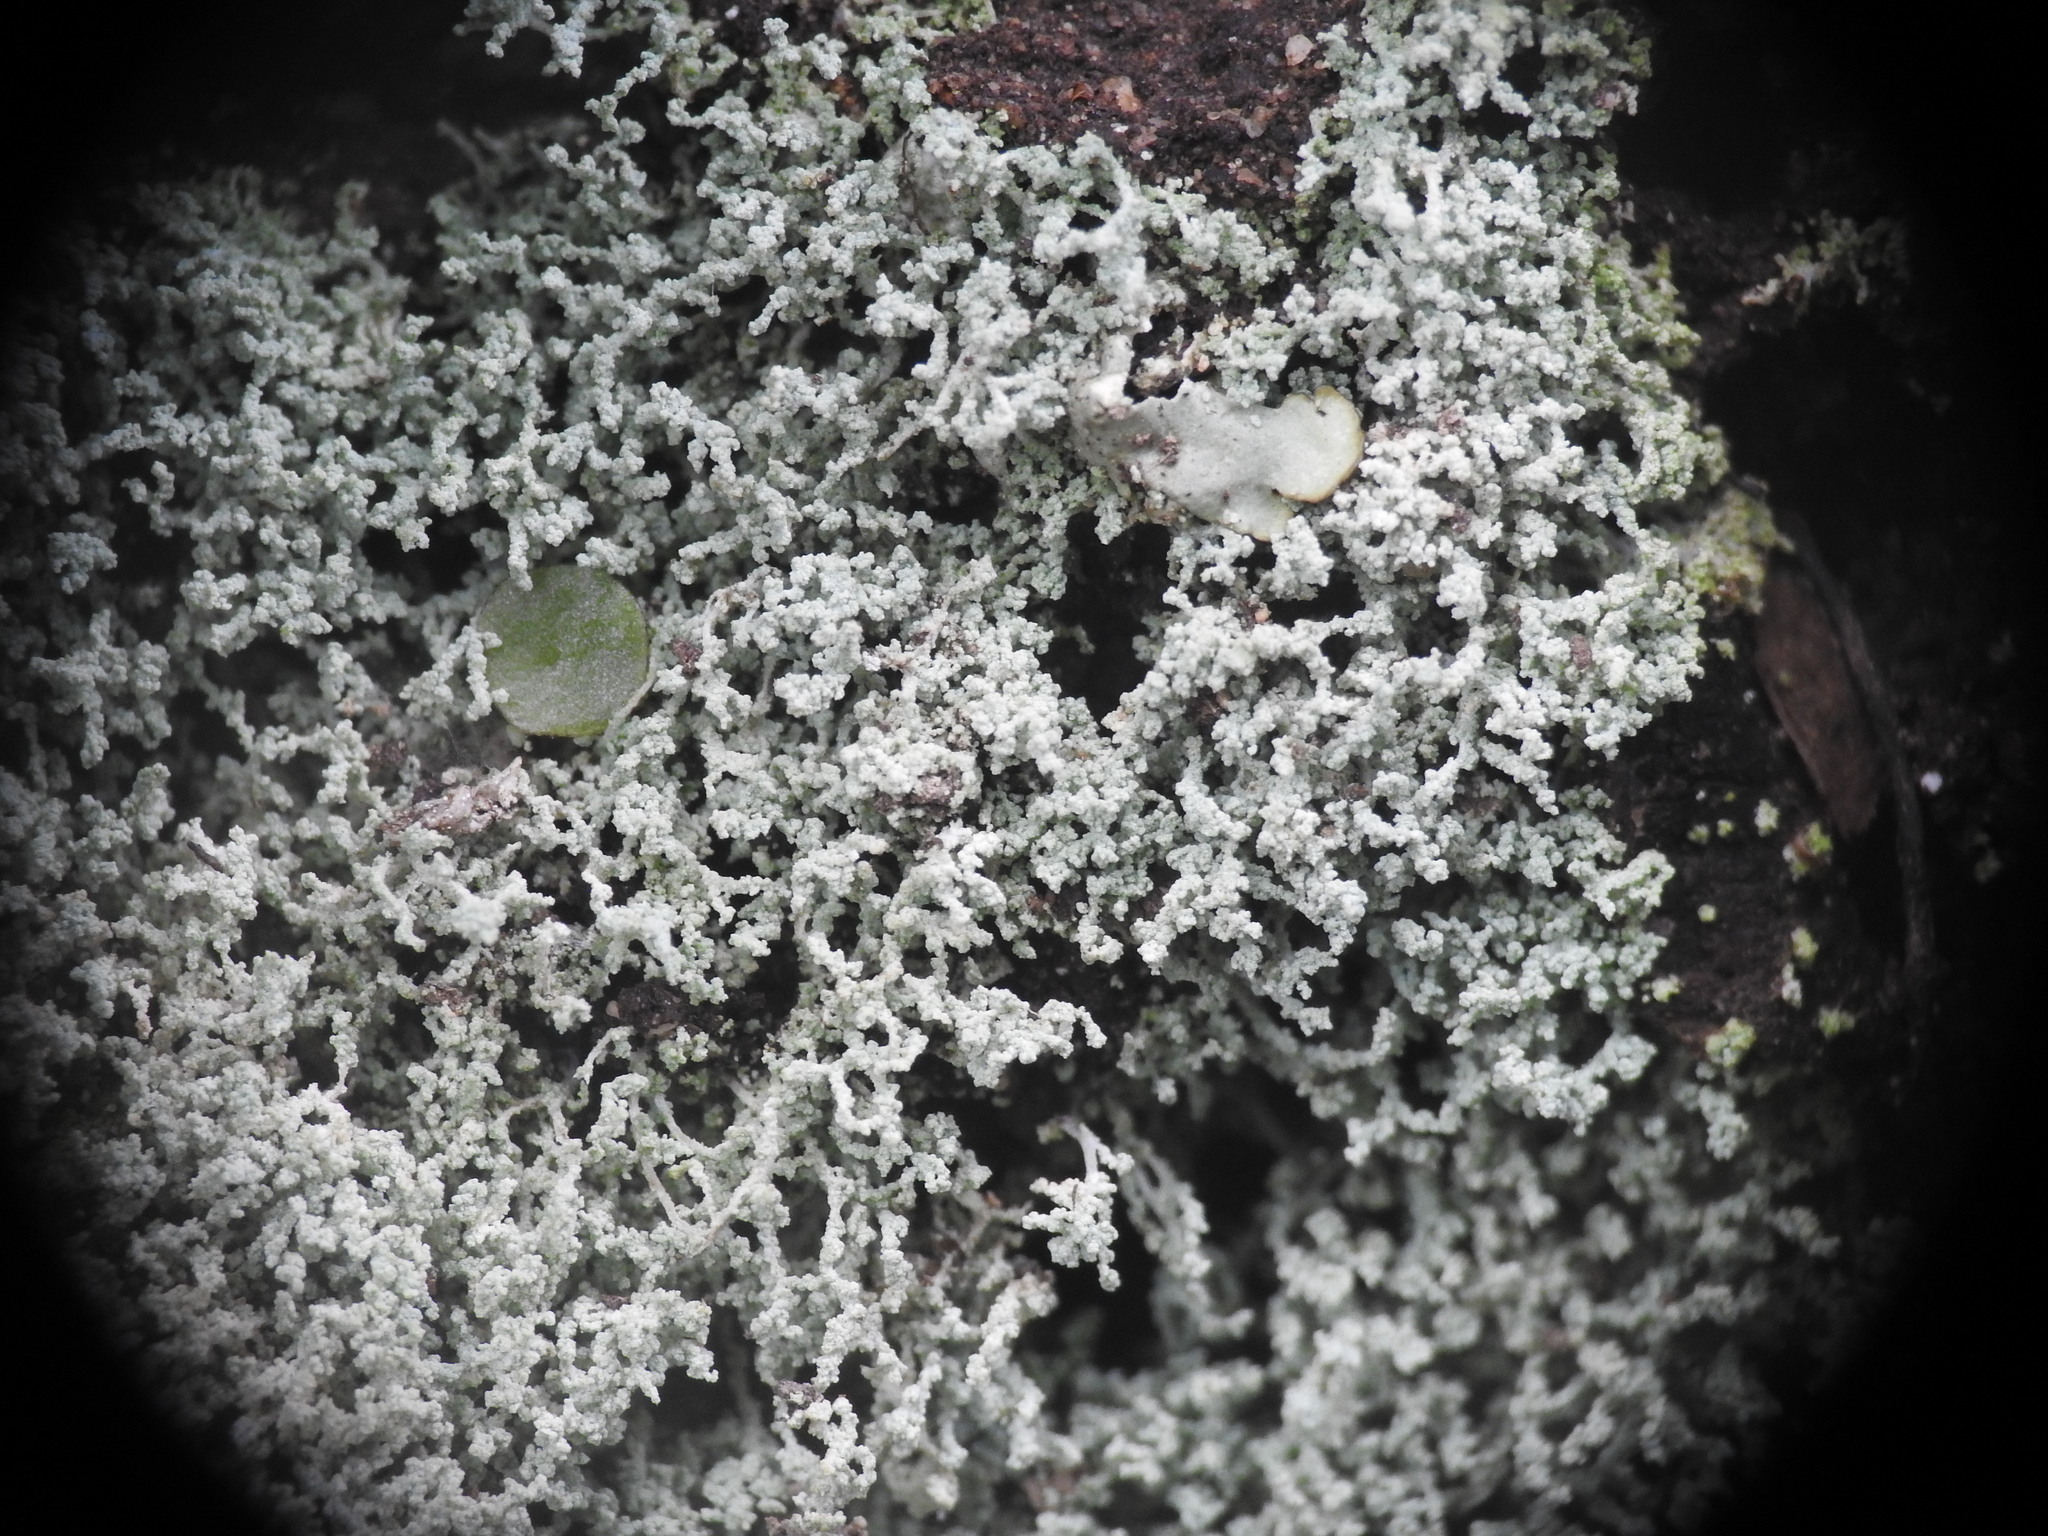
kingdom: Fungi
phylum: Ascomycota
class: Lecanoromycetes
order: Teloschistales
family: Leprocaulaceae
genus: Leprocaulon
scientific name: Leprocaulon quisquiliare
